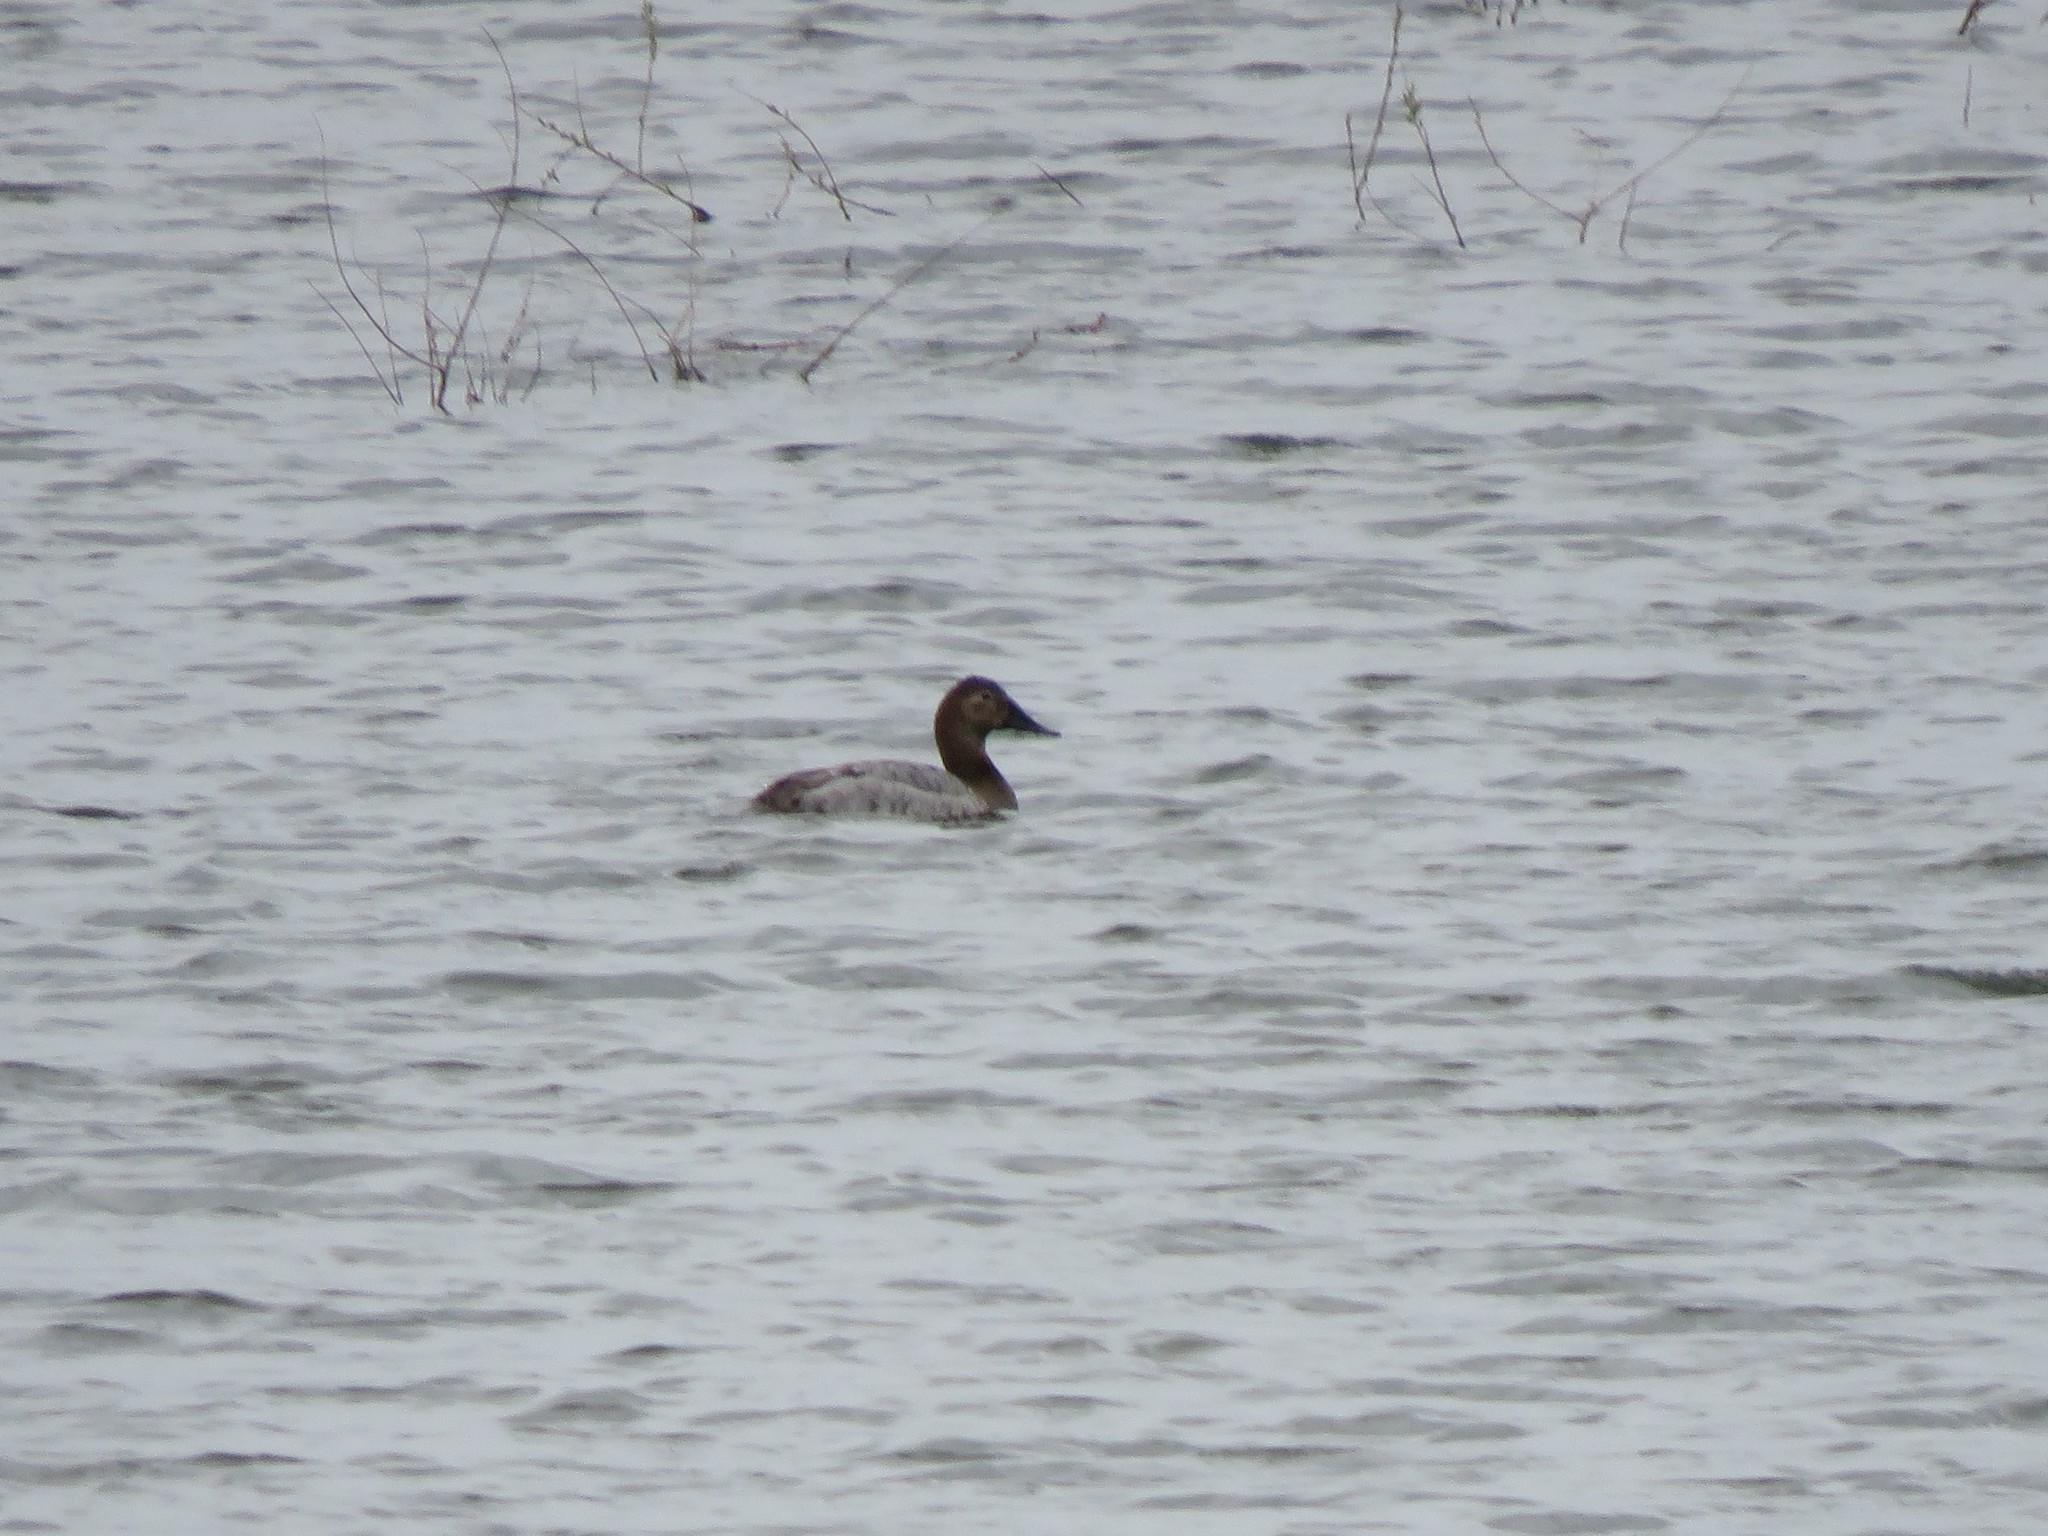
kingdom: Animalia
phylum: Chordata
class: Aves
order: Anseriformes
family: Anatidae
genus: Aythya
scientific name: Aythya valisineria
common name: Canvasback
